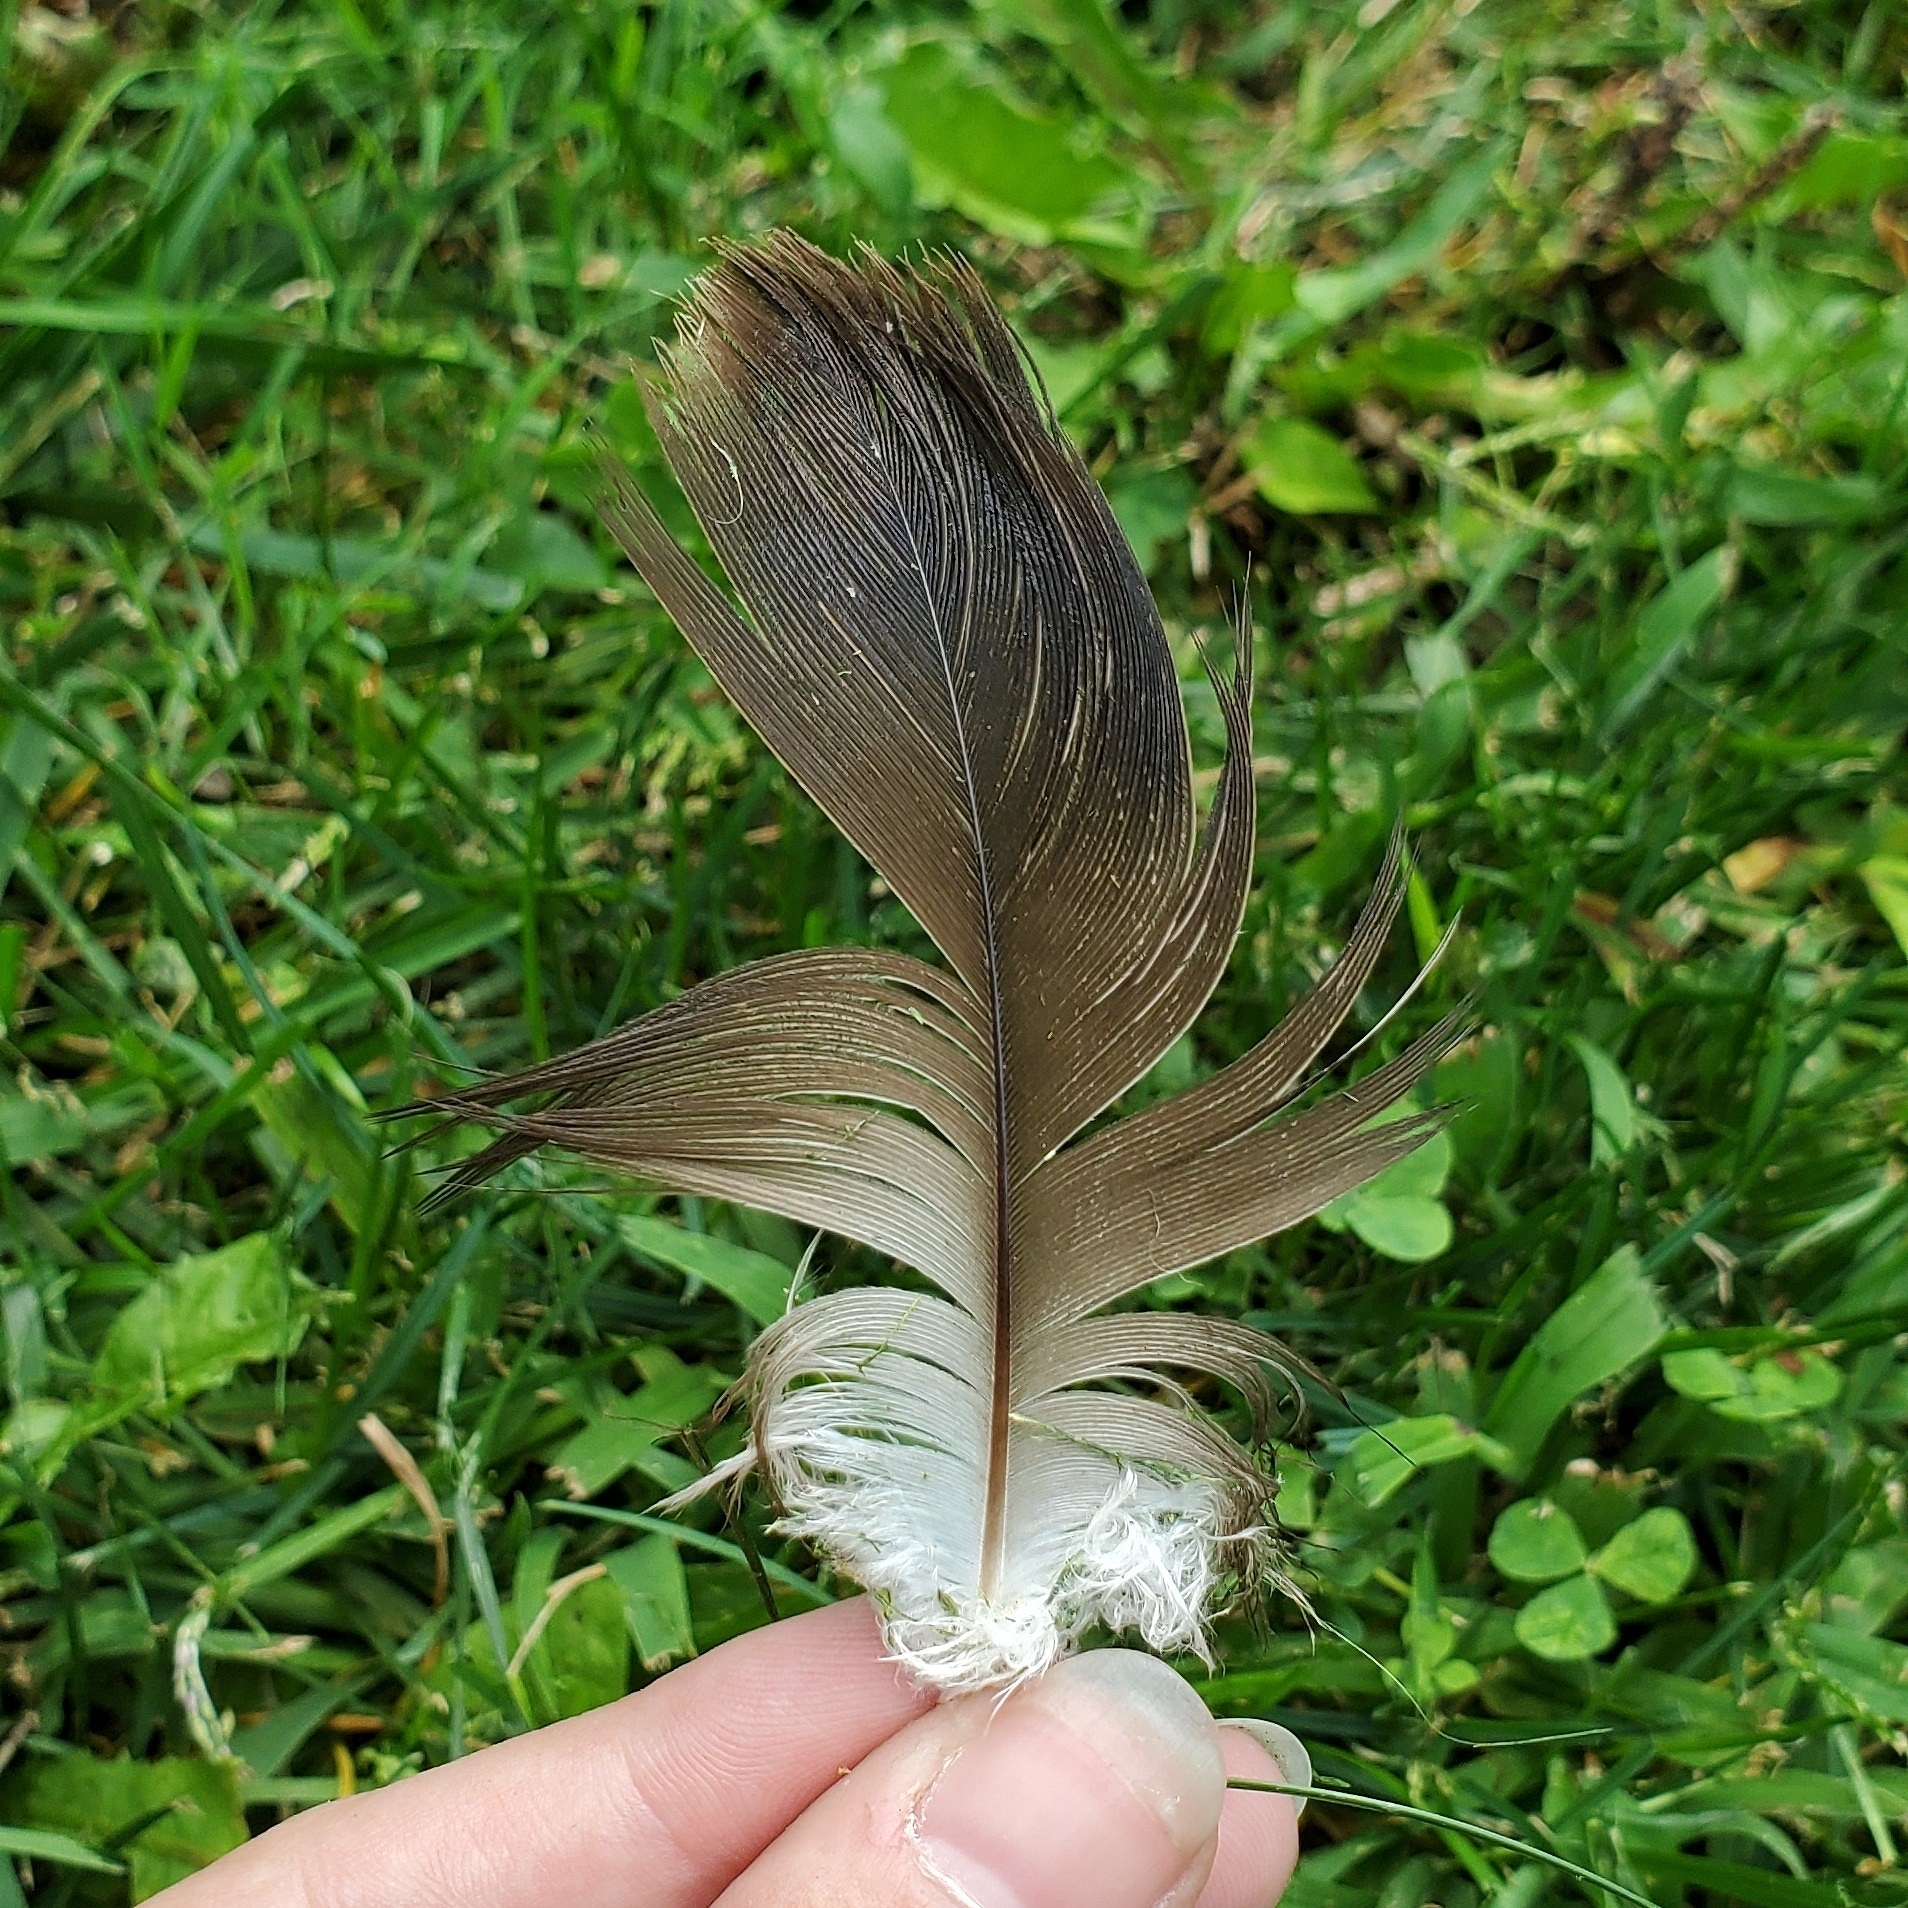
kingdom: Animalia
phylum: Chordata
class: Aves
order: Accipitriformes
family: Cathartidae
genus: Cathartes
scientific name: Cathartes aura
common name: Turkey vulture
